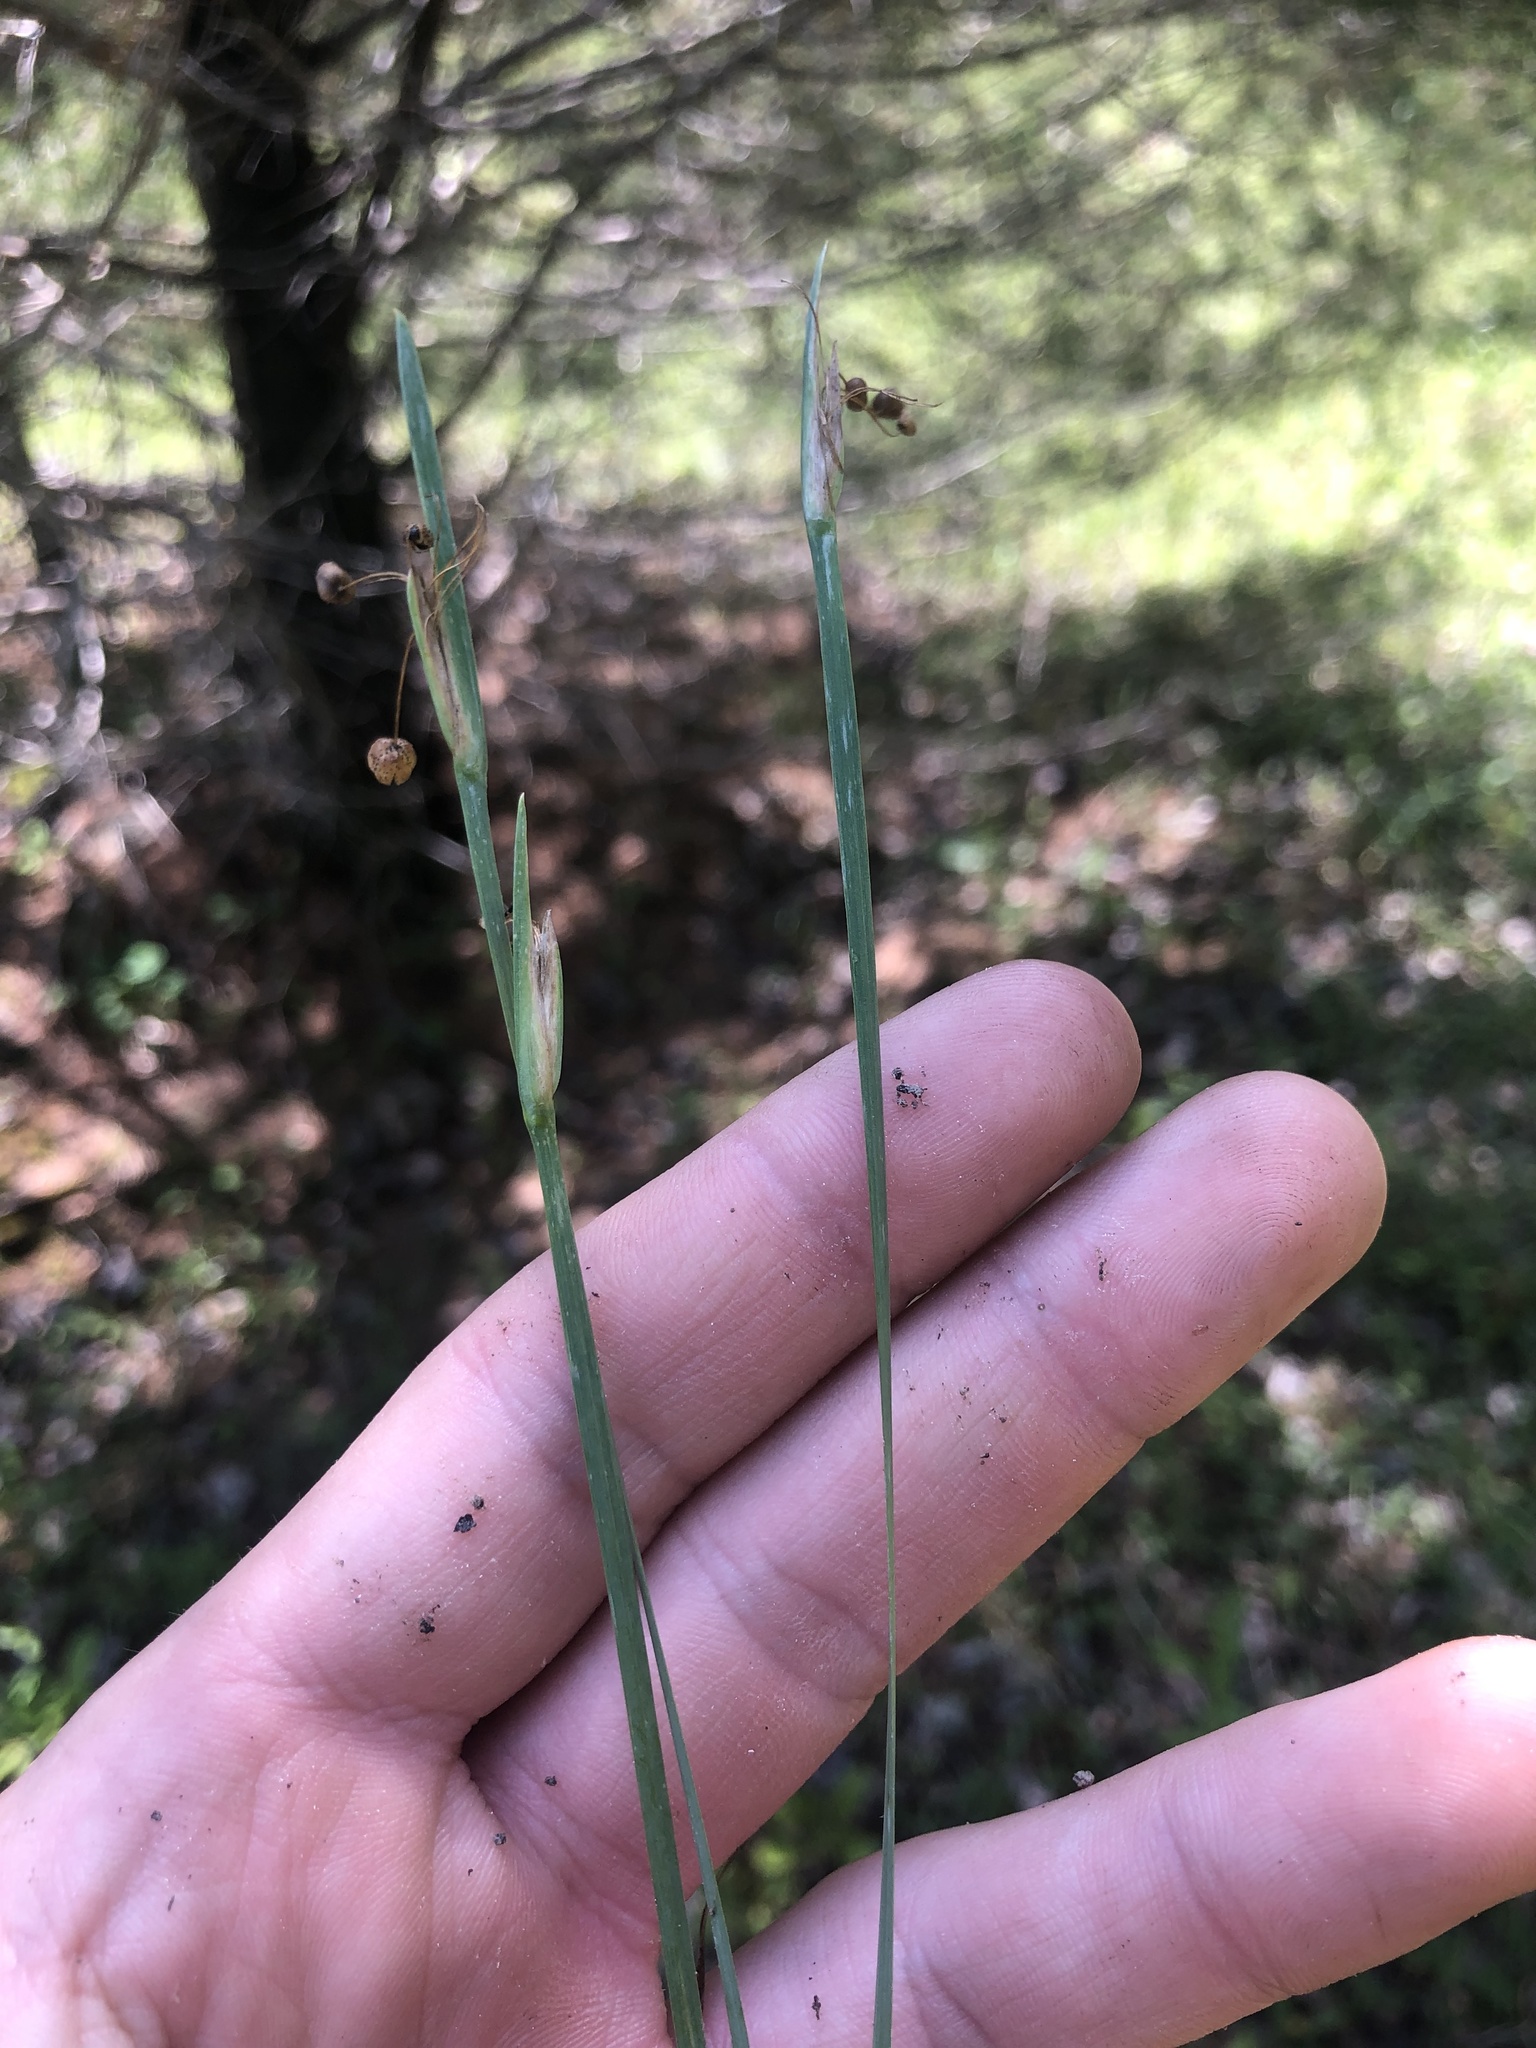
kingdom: Plantae
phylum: Tracheophyta
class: Liliopsida
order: Asparagales
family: Iridaceae
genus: Sisyrinchium
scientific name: Sisyrinchium albidum
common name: Pale blue-eyed-grass
